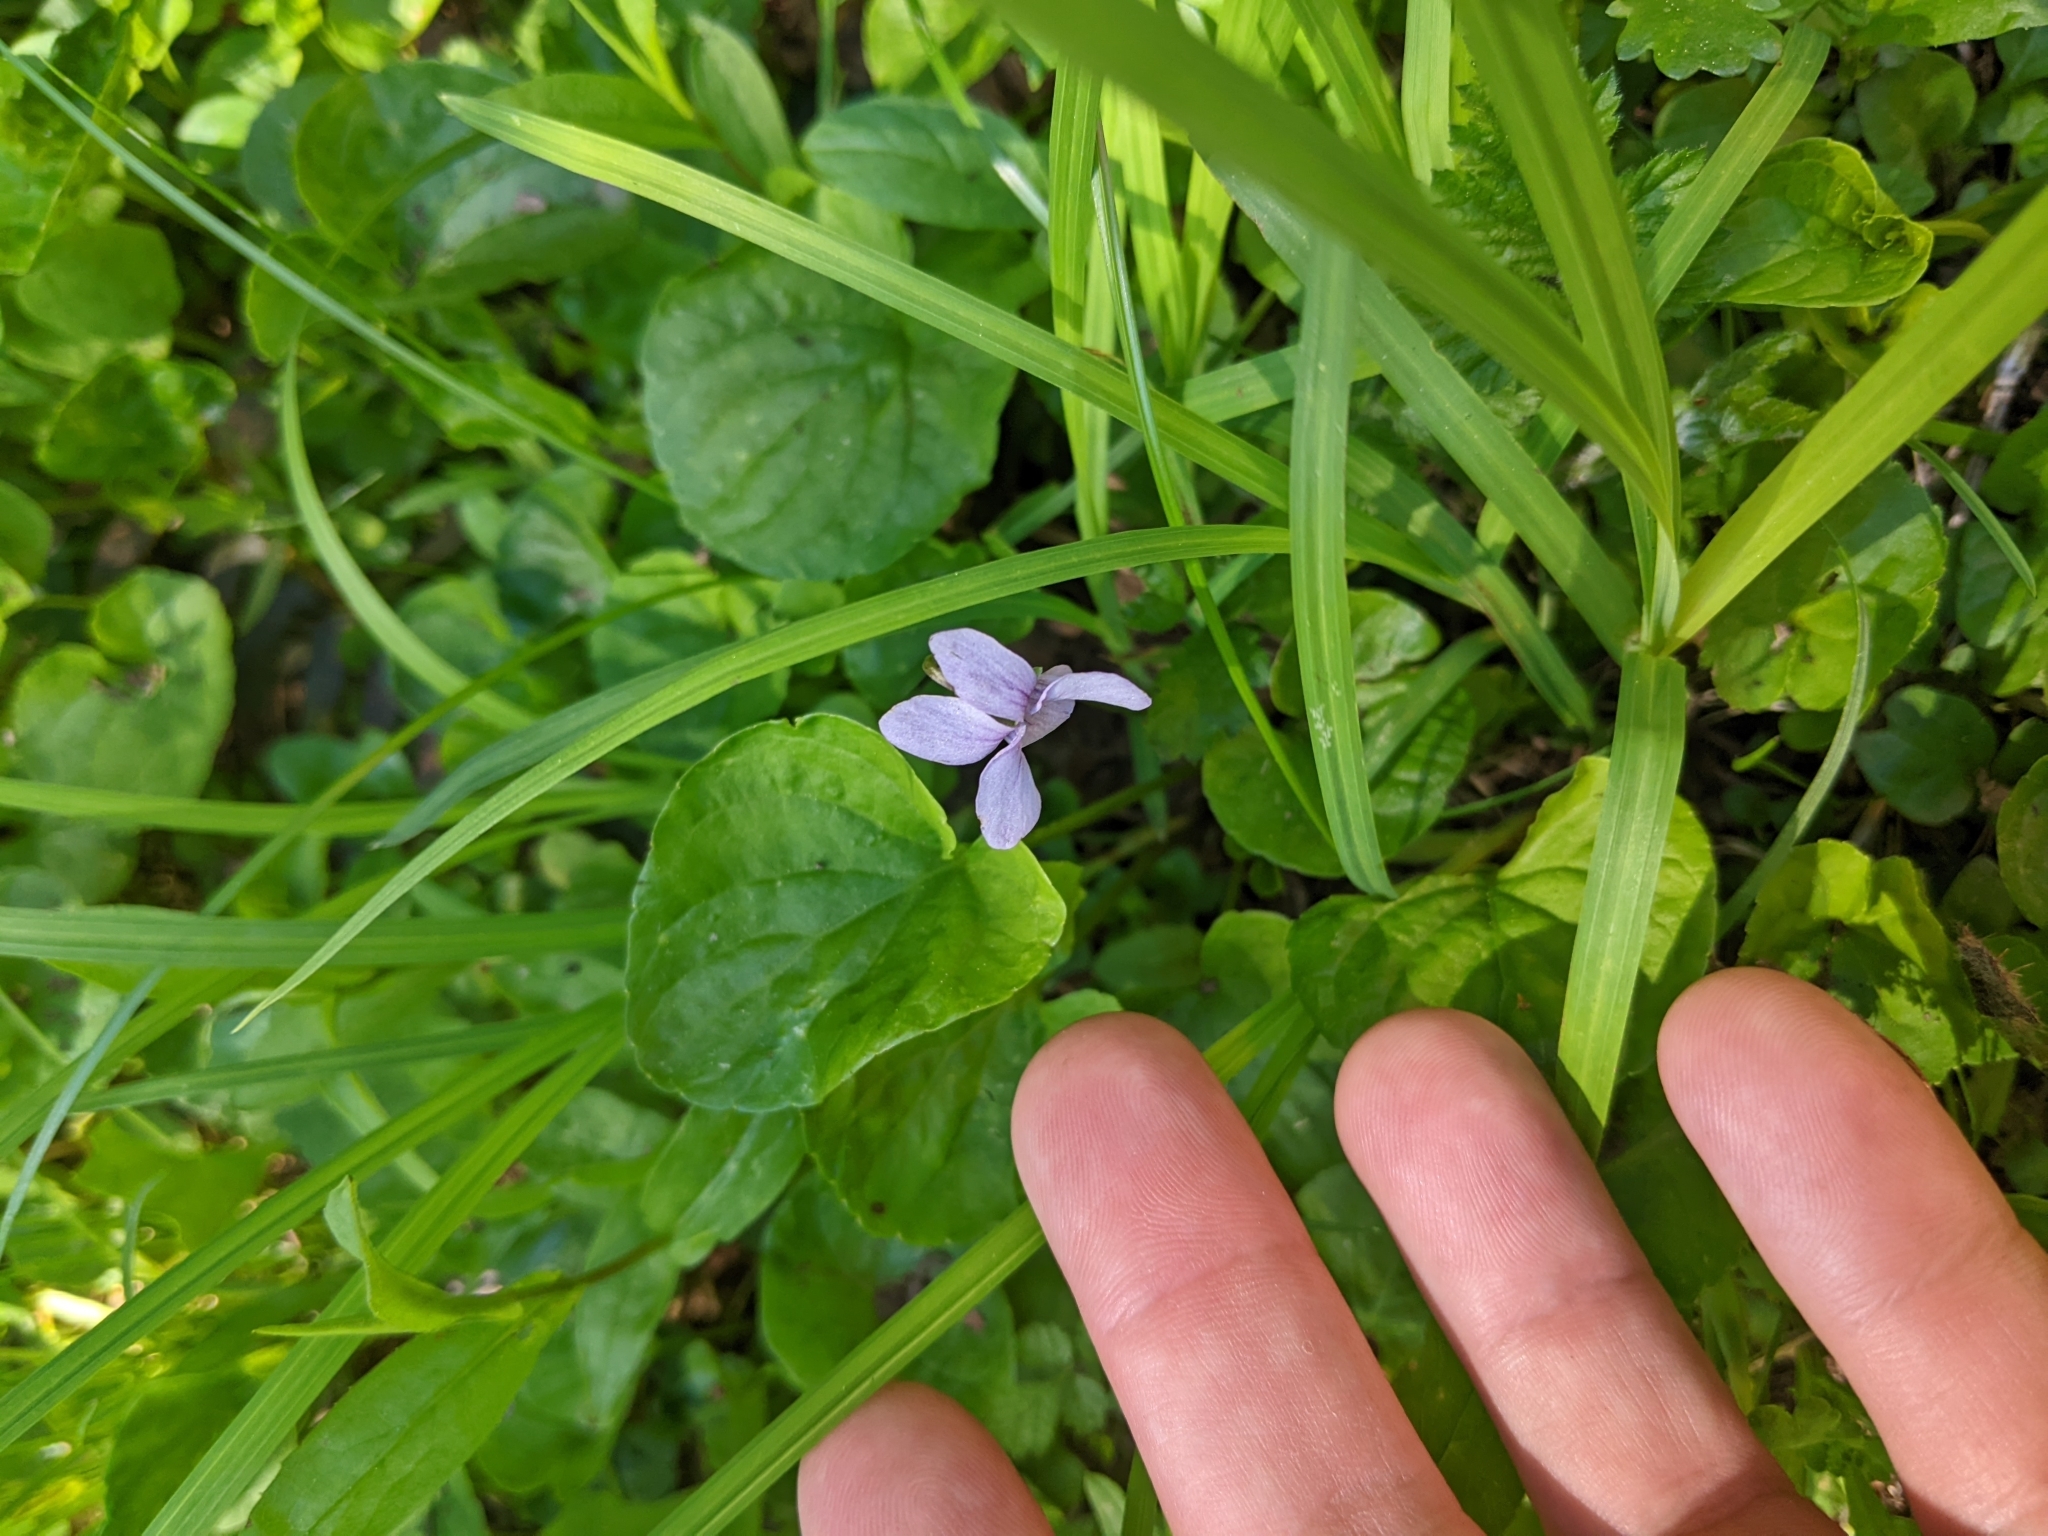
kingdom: Plantae
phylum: Tracheophyta
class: Magnoliopsida
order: Malpighiales
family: Violaceae
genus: Viola
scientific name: Viola palustris
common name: Marsh violet
